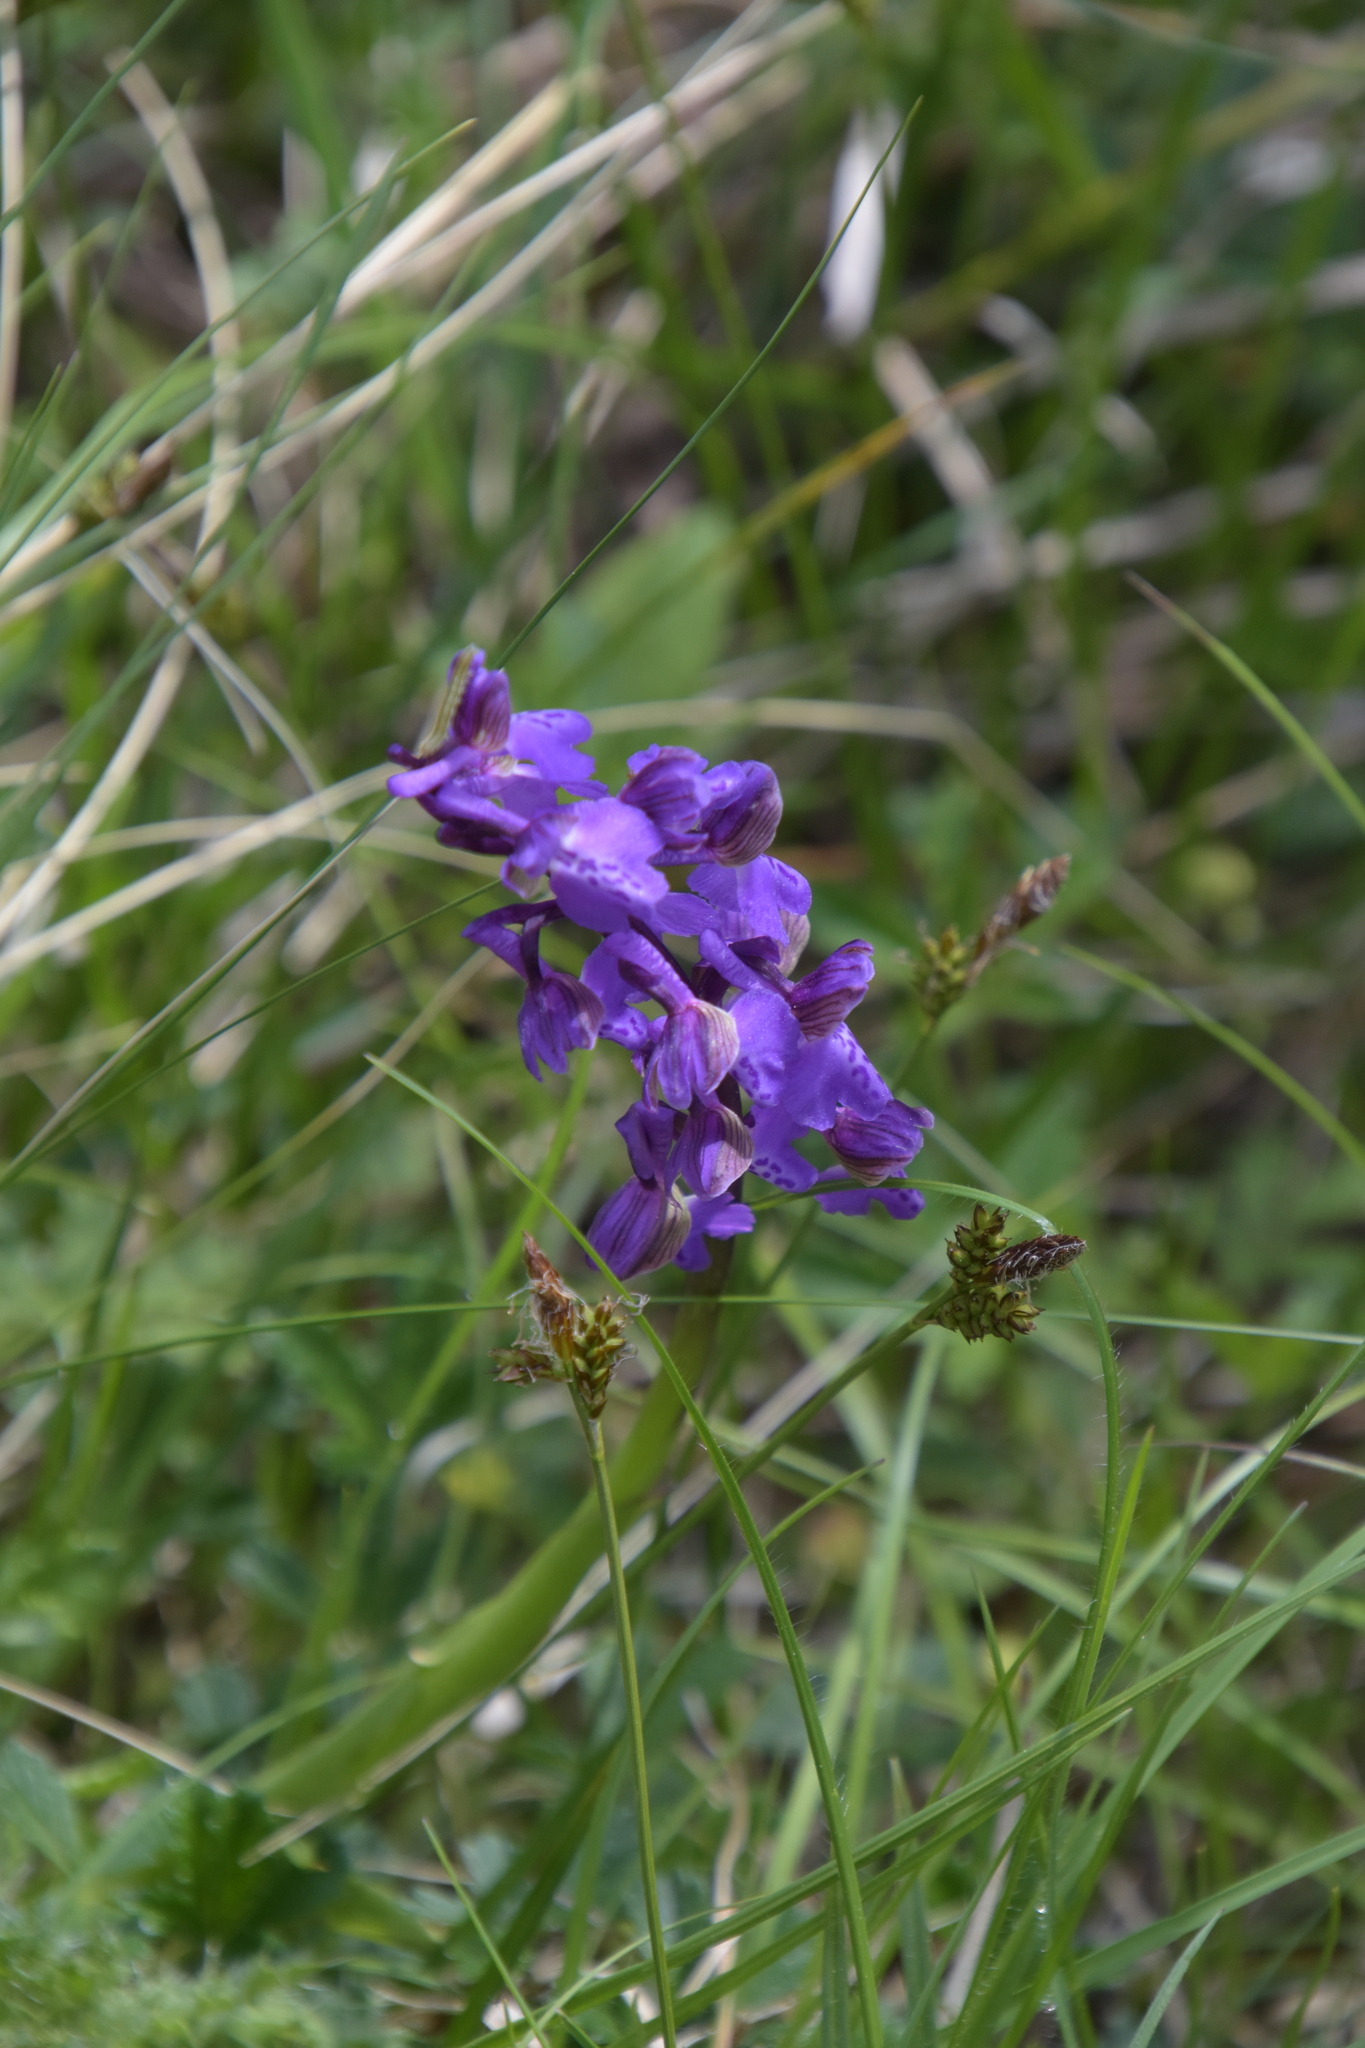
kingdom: Plantae
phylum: Tracheophyta
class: Liliopsida
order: Asparagales
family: Orchidaceae
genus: Anacamptis
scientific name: Anacamptis morio
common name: Green-winged orchid
